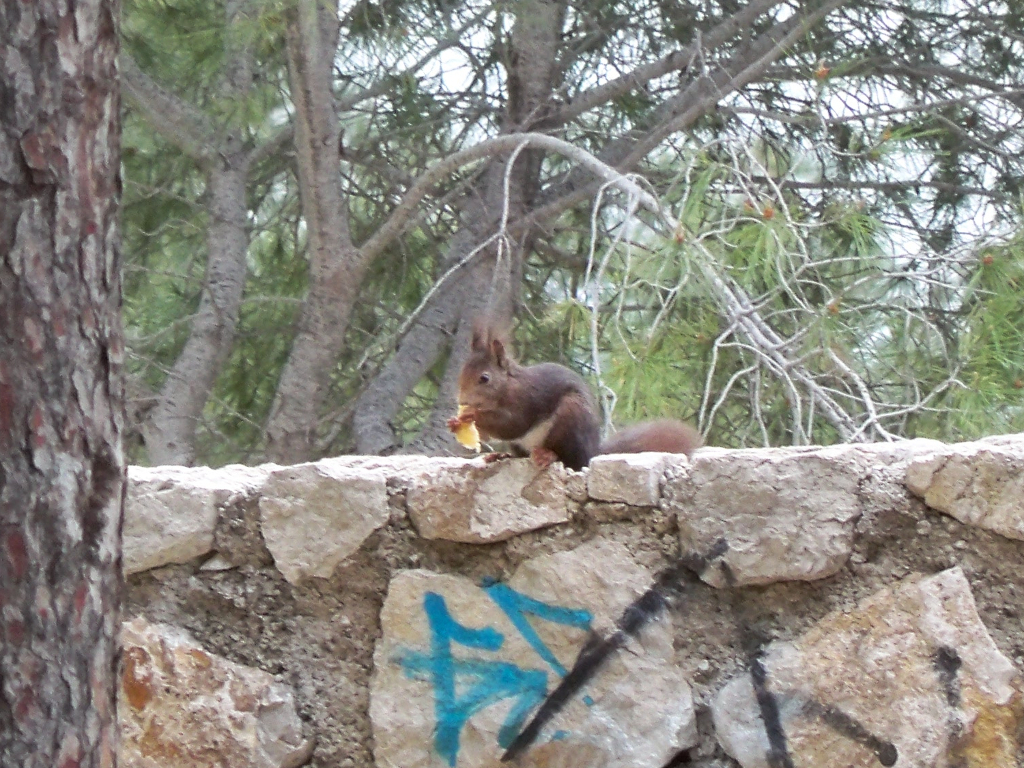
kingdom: Animalia
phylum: Chordata
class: Mammalia
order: Rodentia
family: Sciuridae
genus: Sciurus
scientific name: Sciurus vulgaris
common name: Eurasian red squirrel
